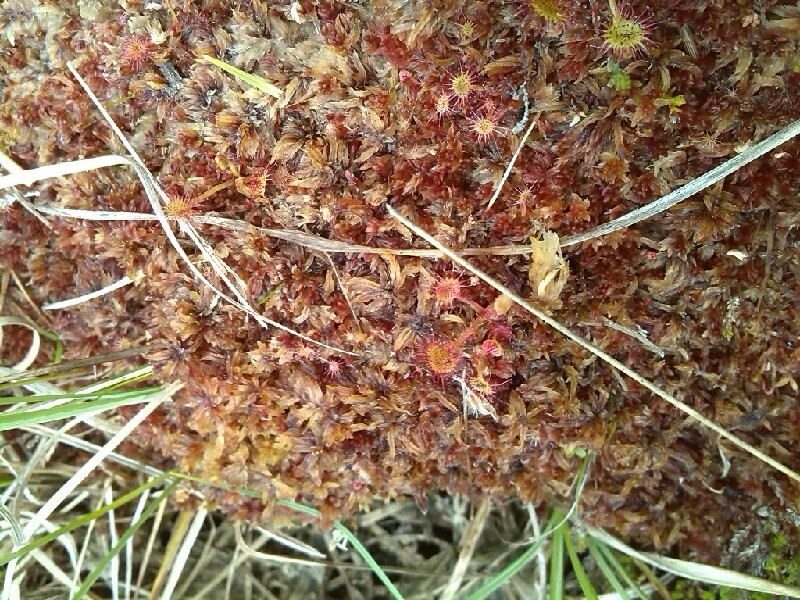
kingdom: Plantae
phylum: Bryophyta
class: Sphagnopsida
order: Sphagnales
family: Sphagnaceae
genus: Sphagnum
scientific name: Sphagnum subnitens
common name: Lustrous bog-moss
